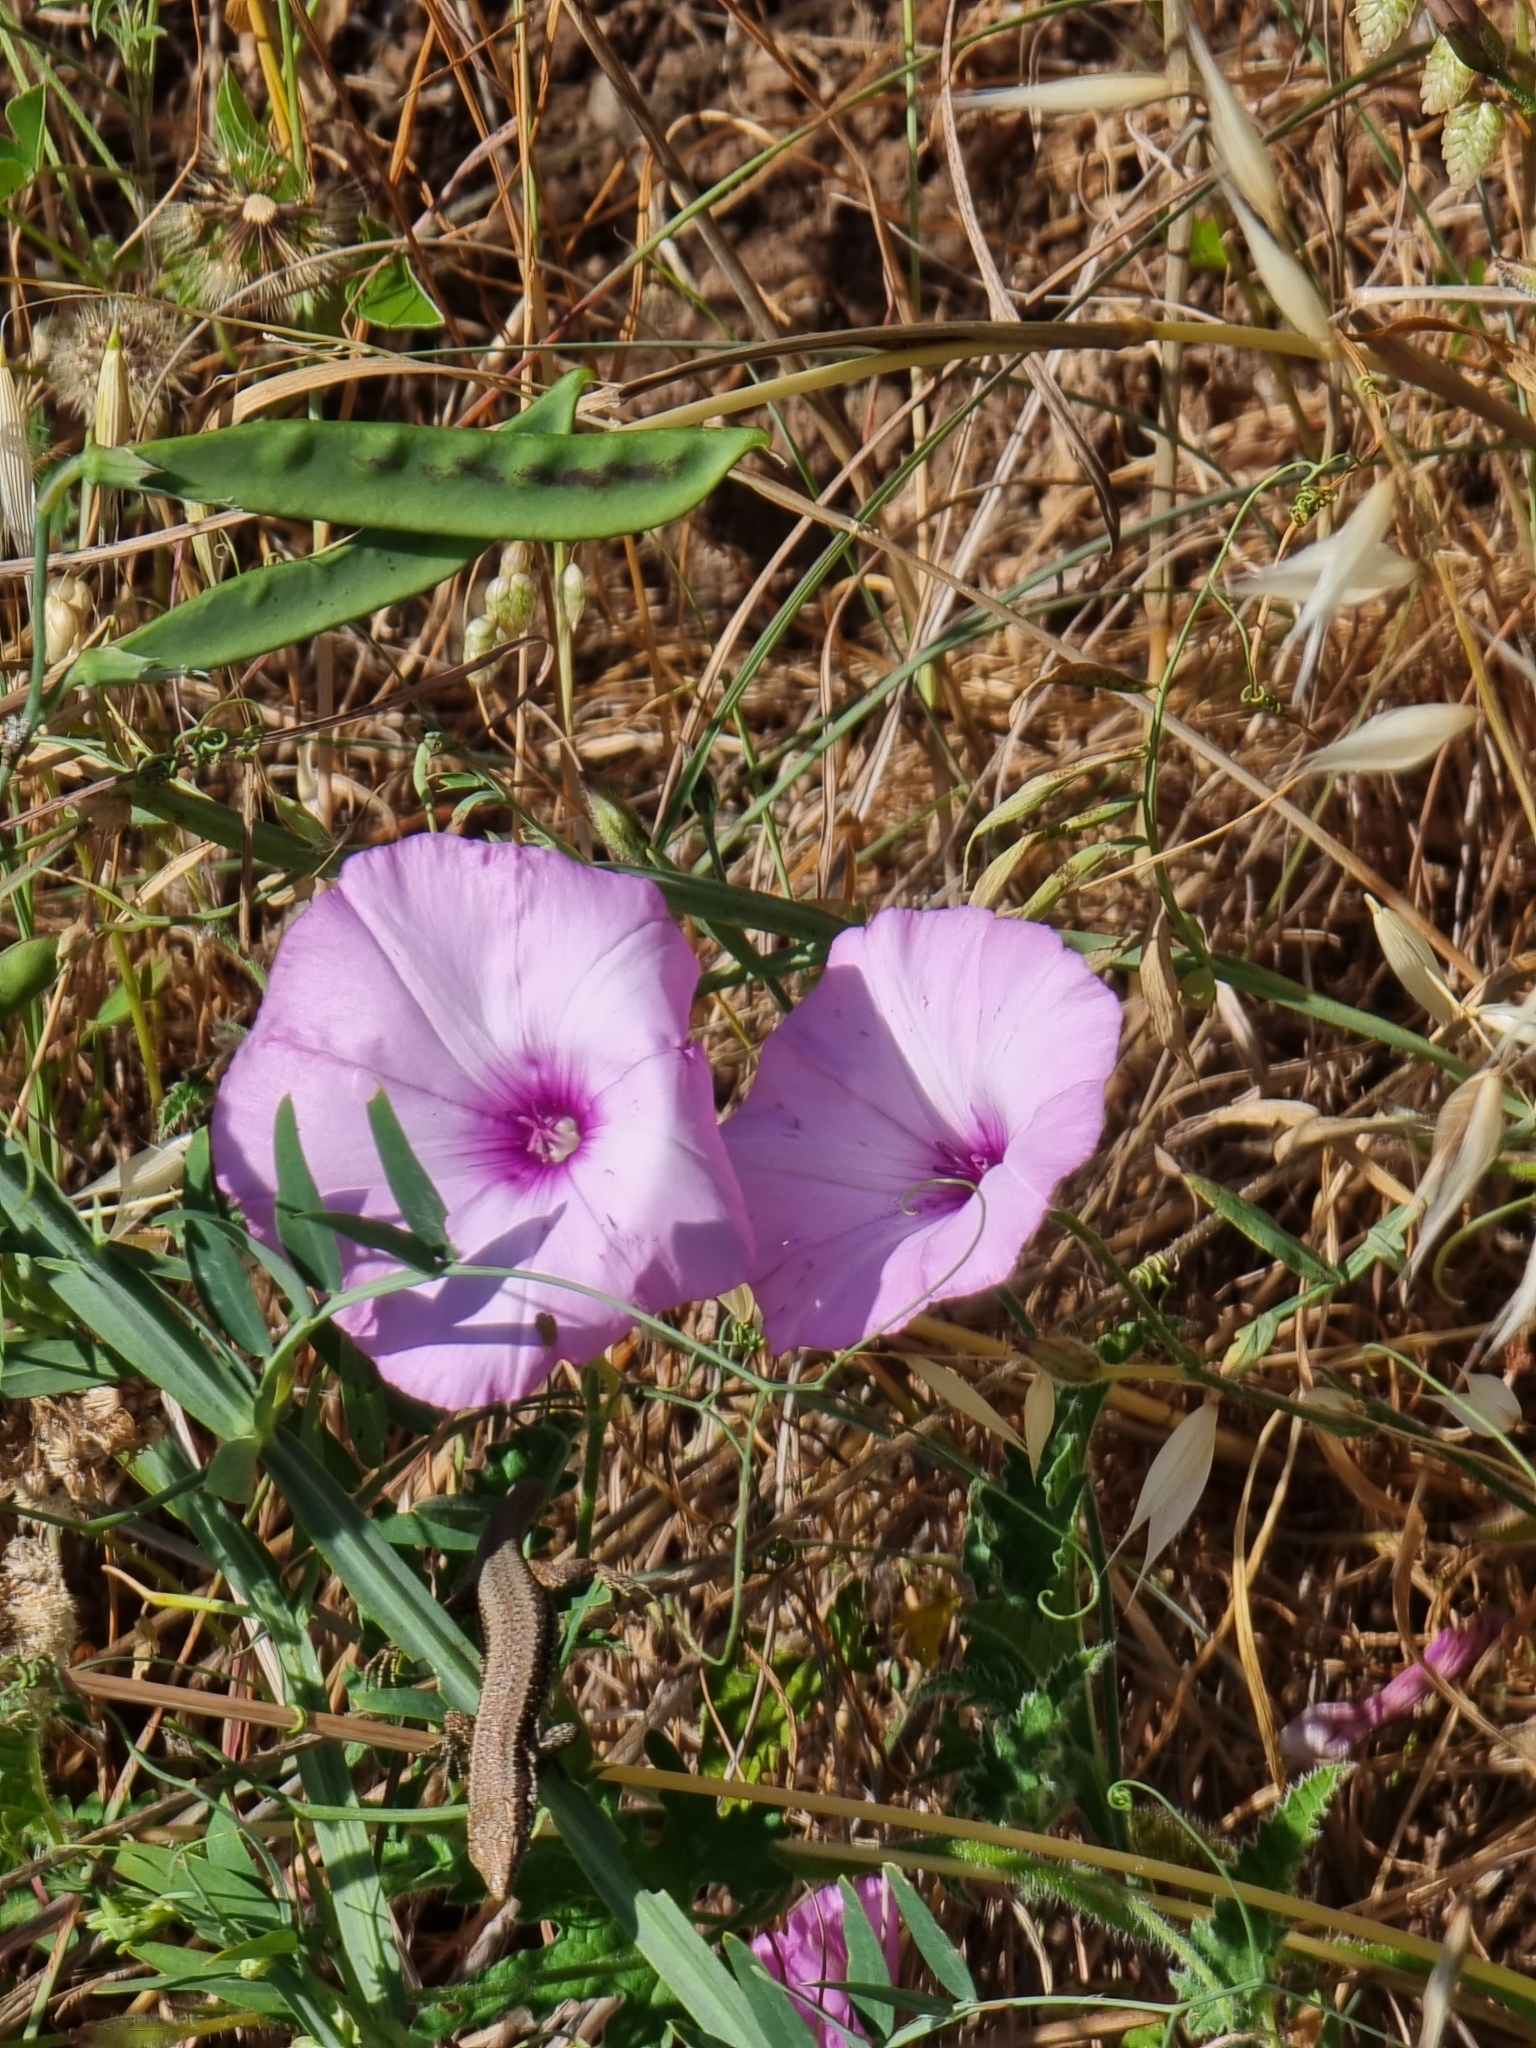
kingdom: Plantae
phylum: Tracheophyta
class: Magnoliopsida
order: Solanales
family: Convolvulaceae
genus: Convolvulus
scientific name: Convolvulus althaeoides
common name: Mallow bindweed
